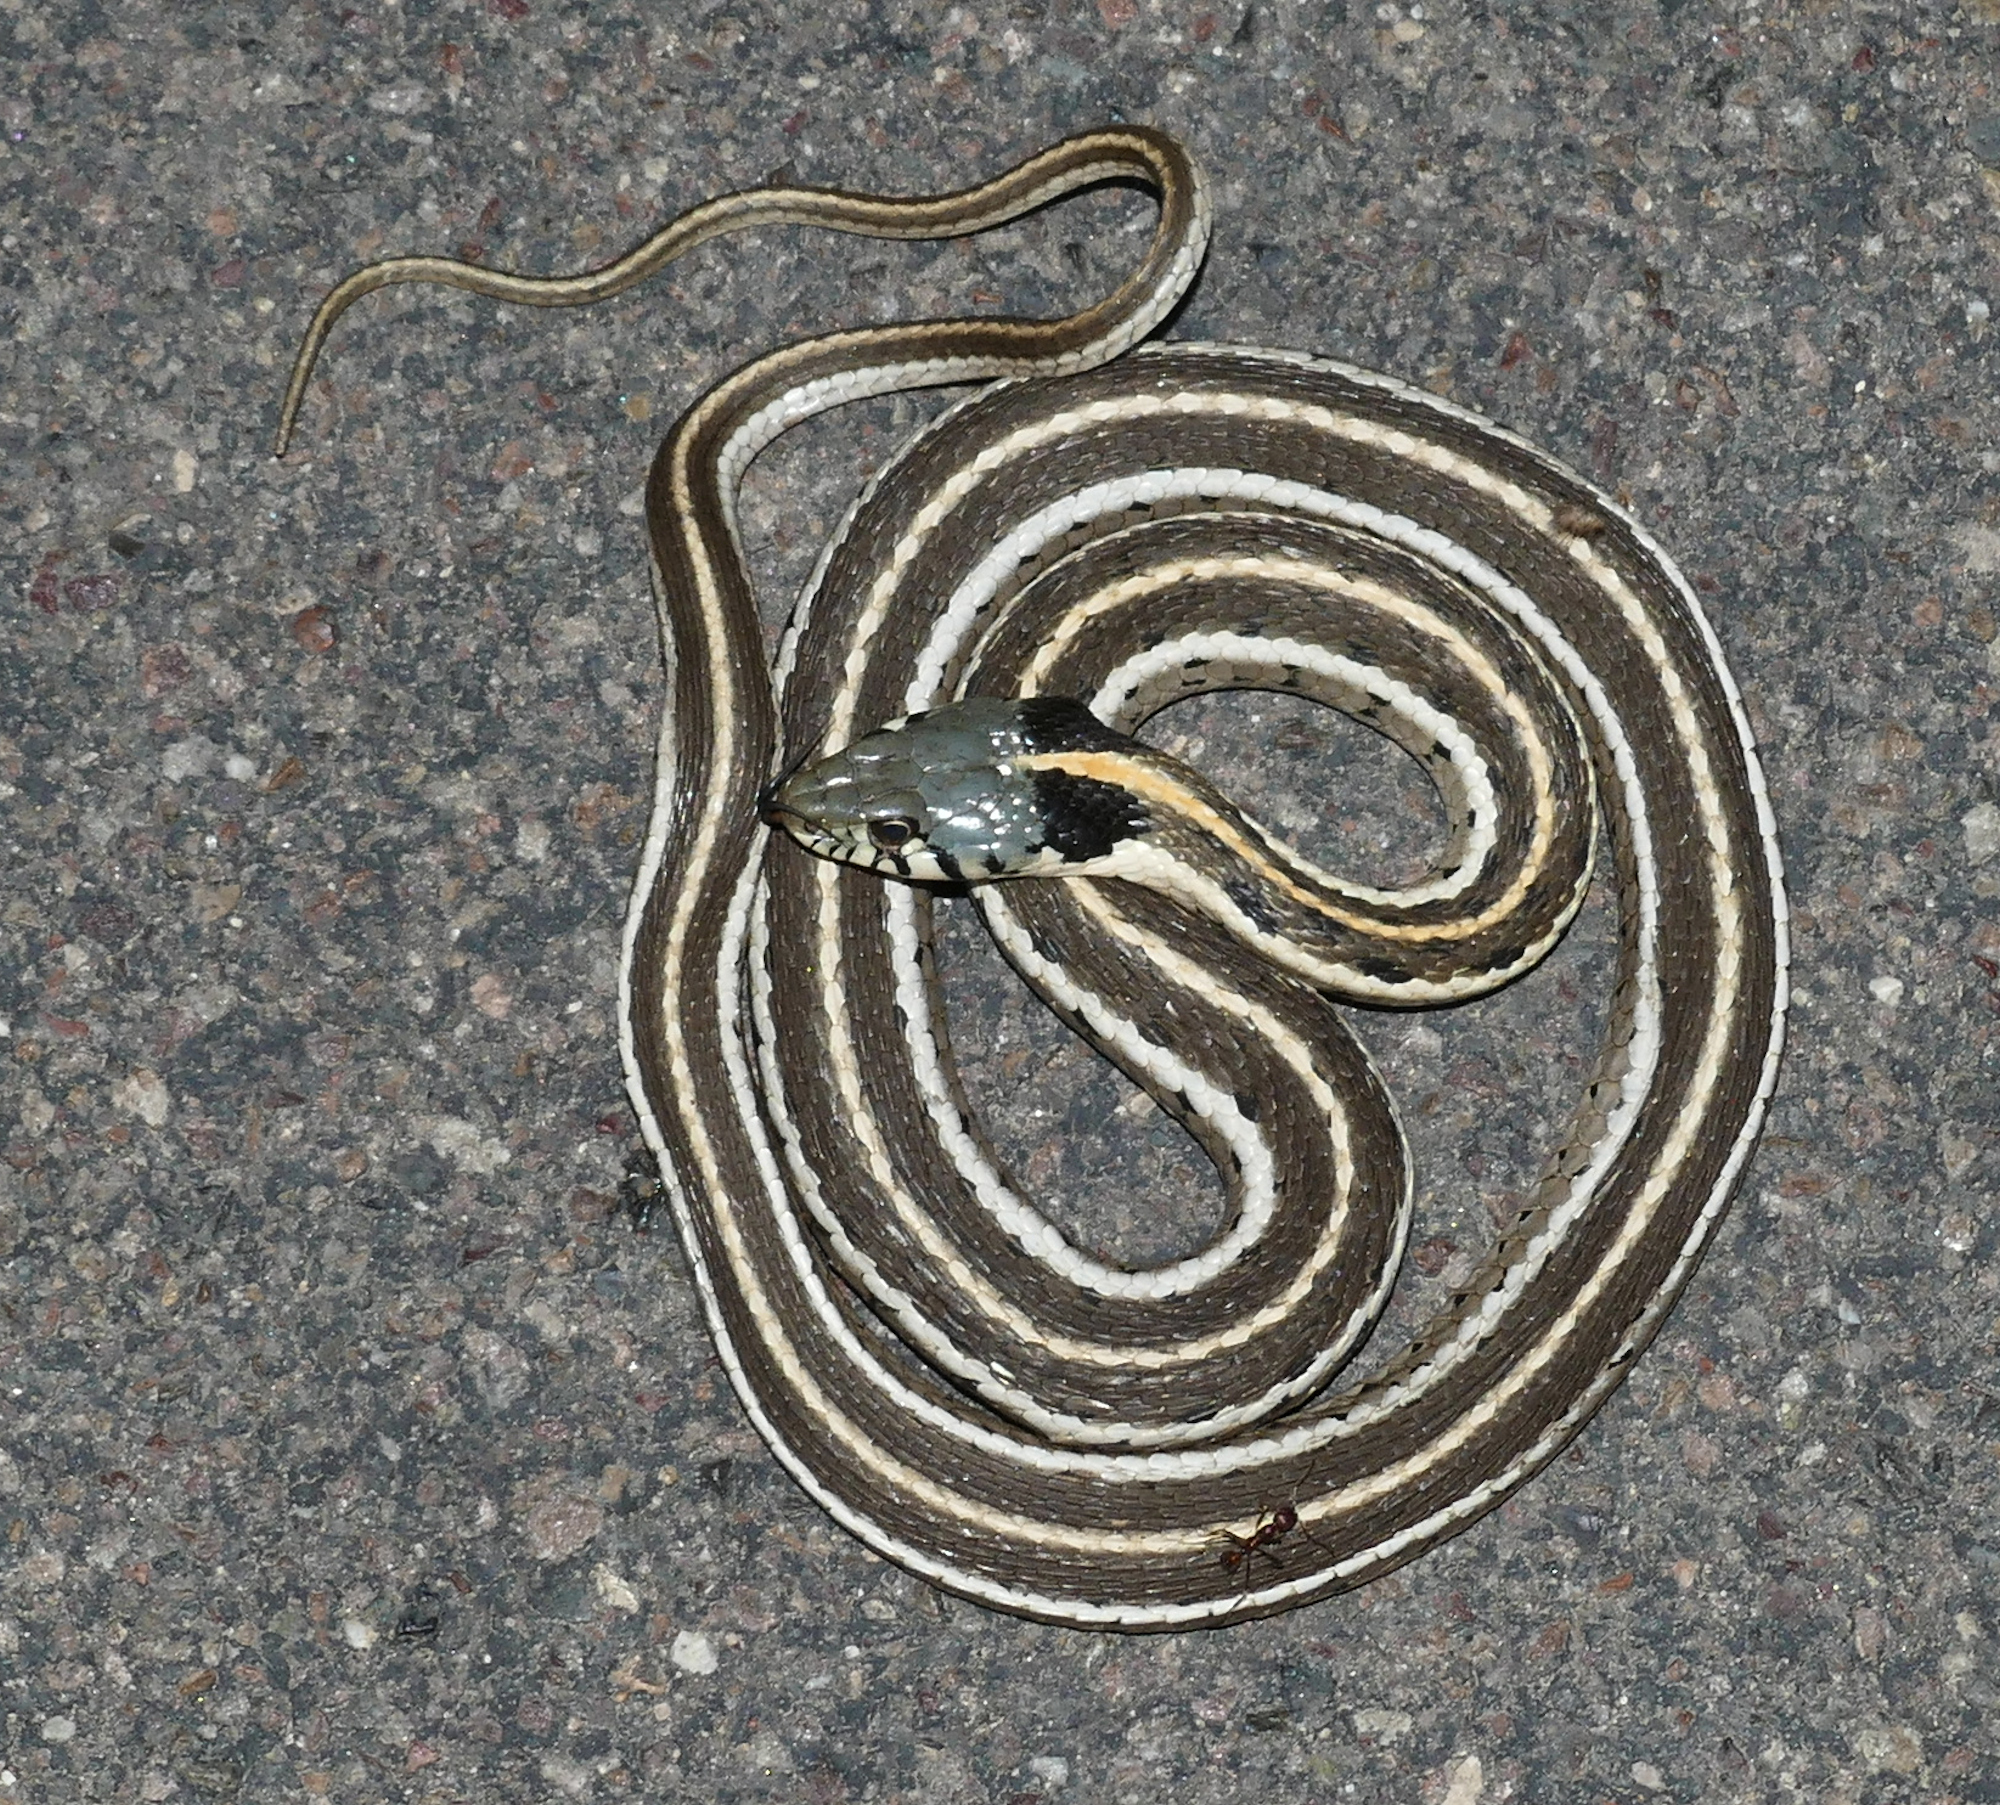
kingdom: Animalia
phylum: Chordata
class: Squamata
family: Colubridae
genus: Thamnophis
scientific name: Thamnophis cyrtopsis
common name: Black-necked gartersnake
